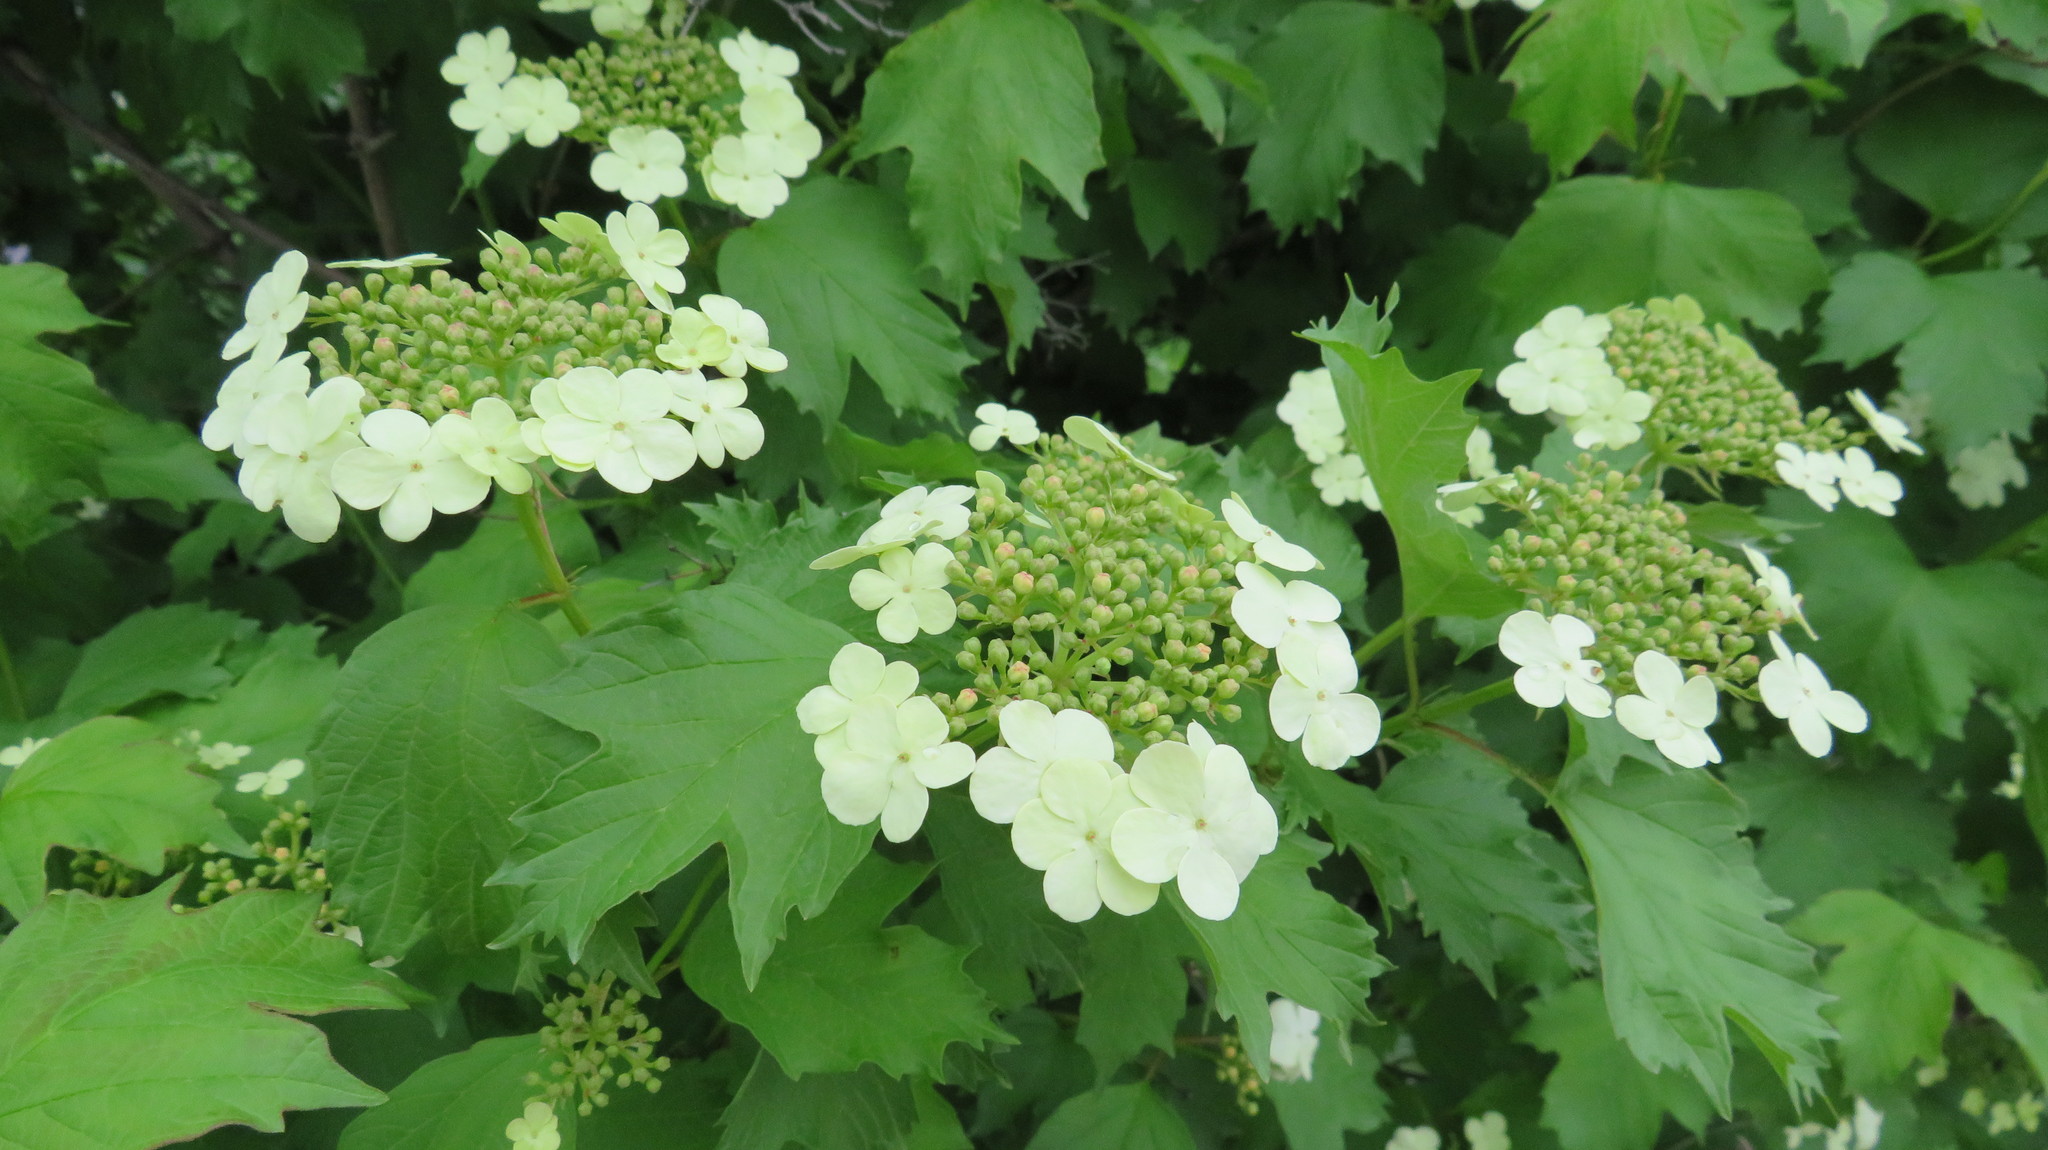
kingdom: Plantae
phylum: Tracheophyta
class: Magnoliopsida
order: Dipsacales
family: Viburnaceae
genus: Viburnum
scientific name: Viburnum opulus
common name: Guelder-rose
